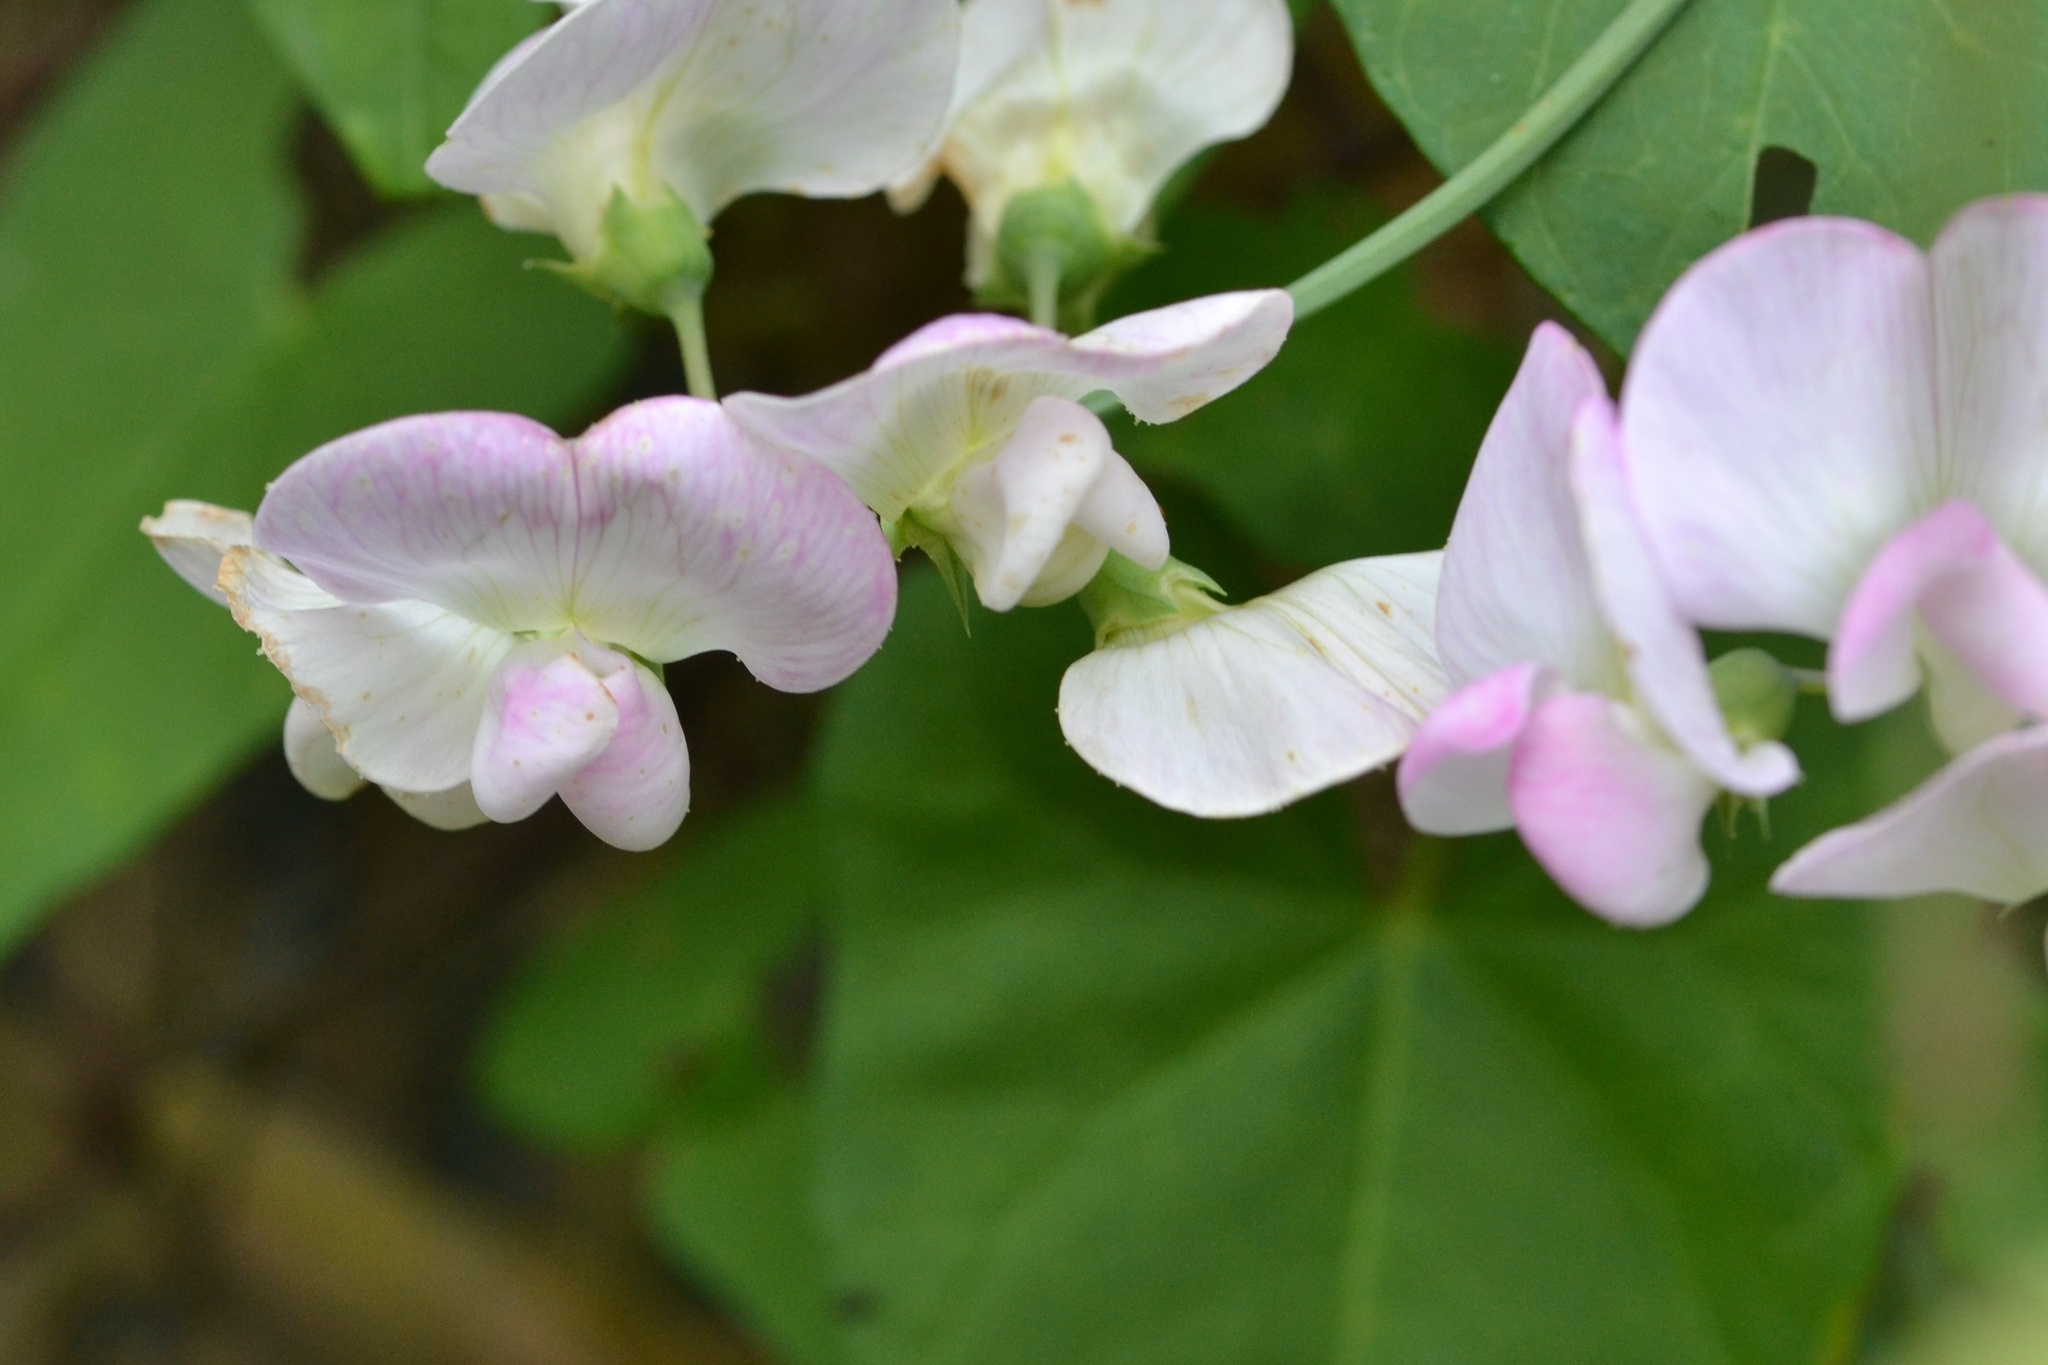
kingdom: Plantae
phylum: Tracheophyta
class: Magnoliopsida
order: Fabales
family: Fabaceae
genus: Lathyrus
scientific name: Lathyrus latifolius
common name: Perennial pea
